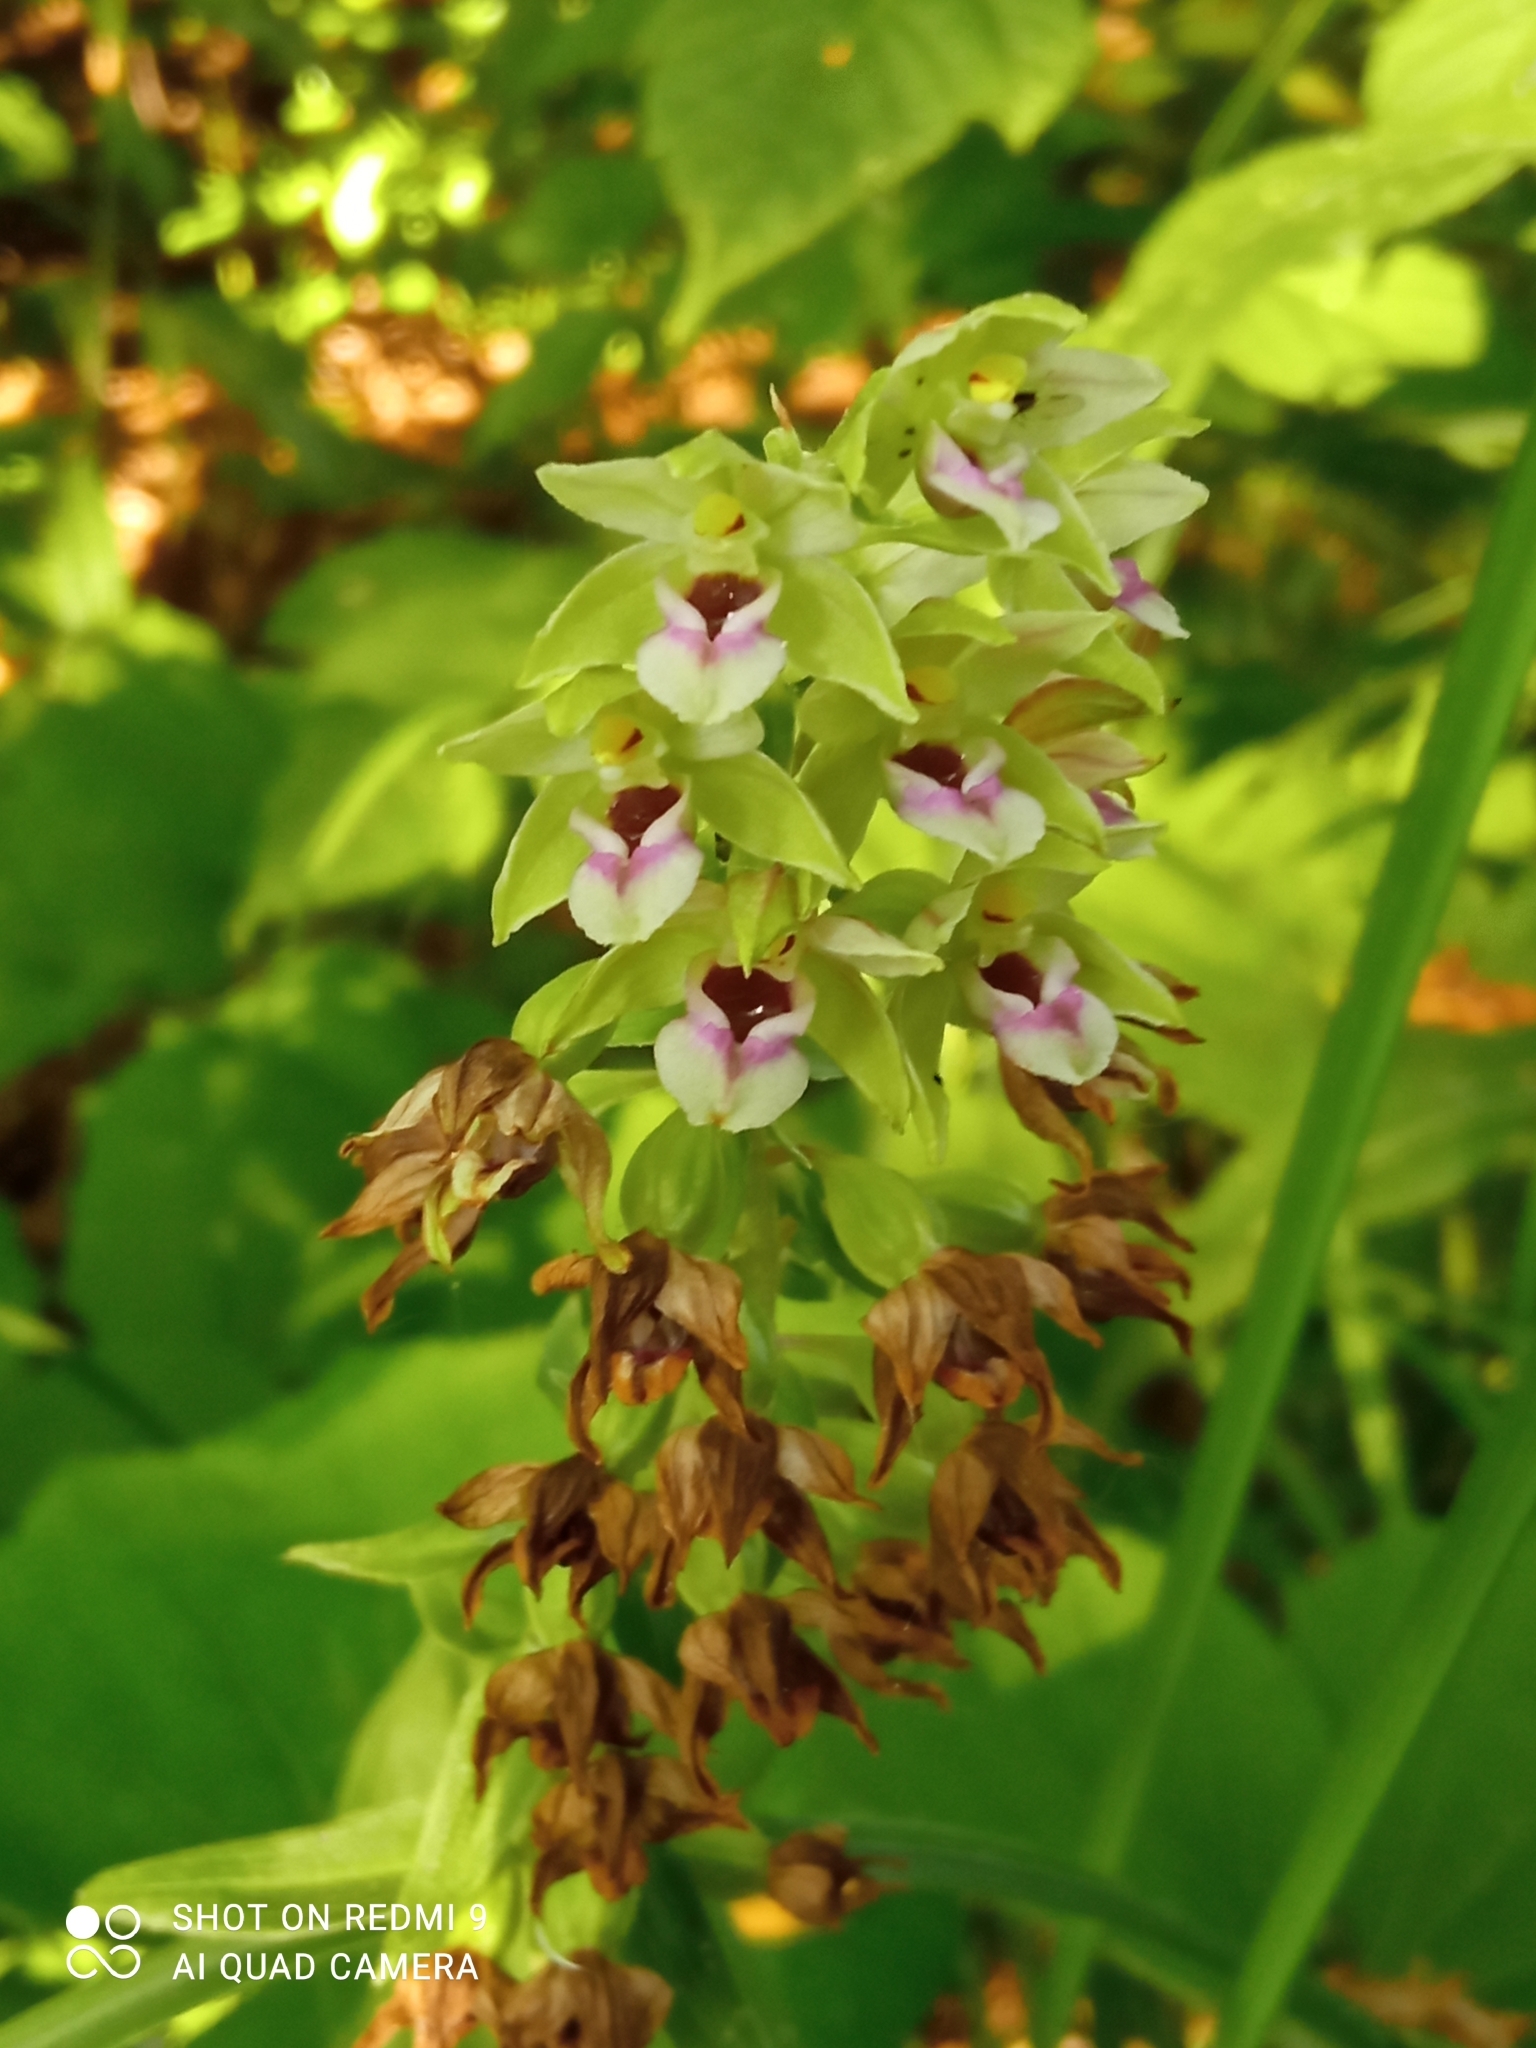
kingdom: Plantae
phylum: Tracheophyta
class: Liliopsida
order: Asparagales
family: Orchidaceae
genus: Epipactis
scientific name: Epipactis helleborine
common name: Broad-leaved helleborine
